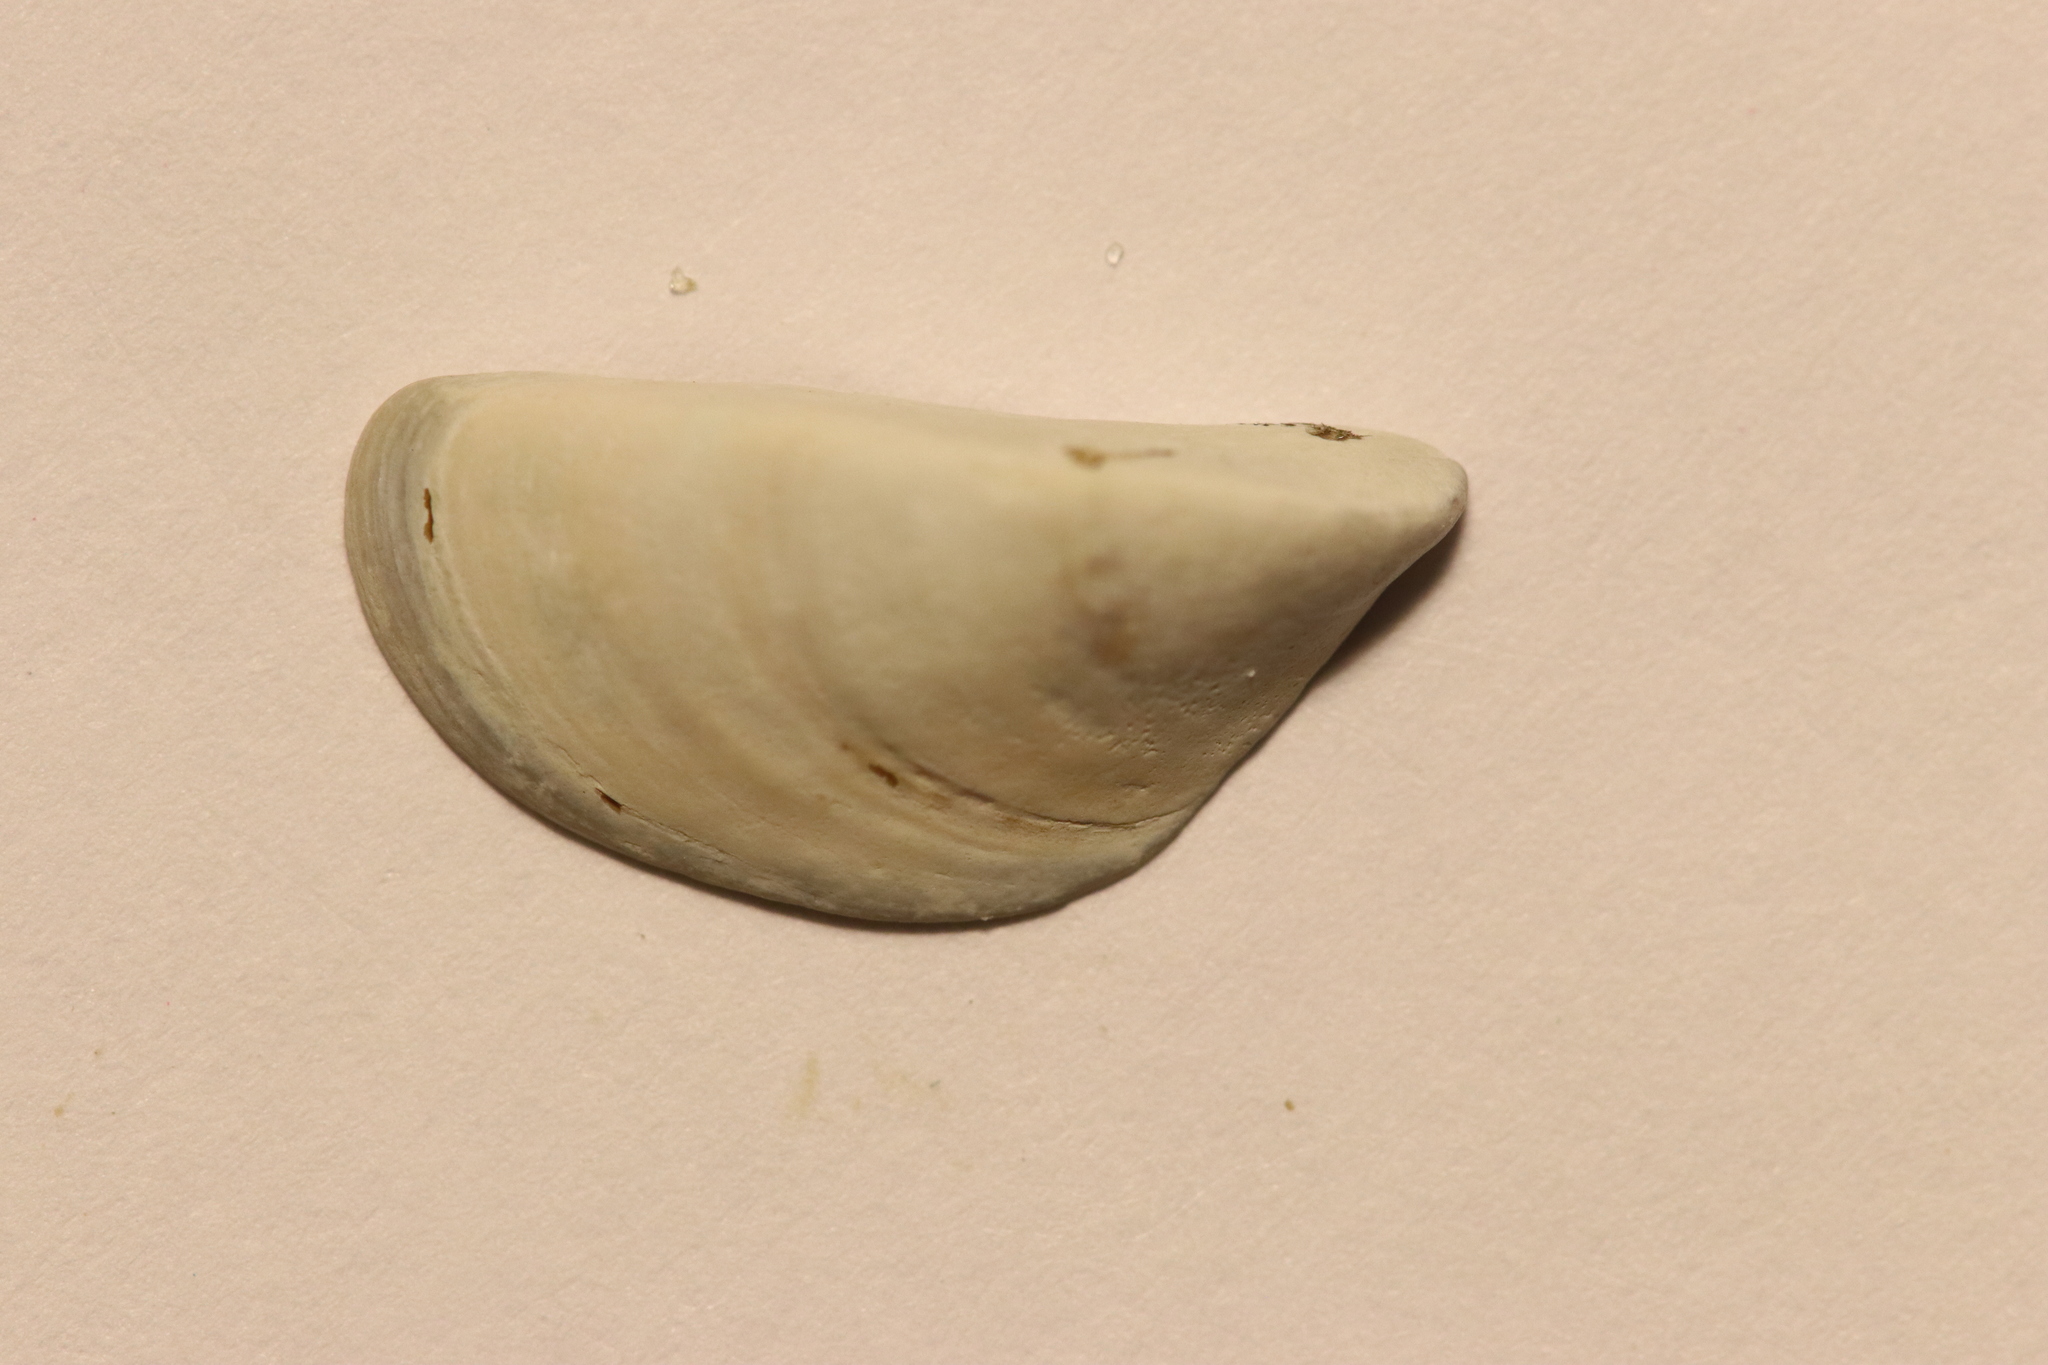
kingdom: Animalia
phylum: Mollusca
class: Bivalvia
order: Myida
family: Dreissenidae
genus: Dreissena
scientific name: Dreissena polymorpha
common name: Zebra mussel
